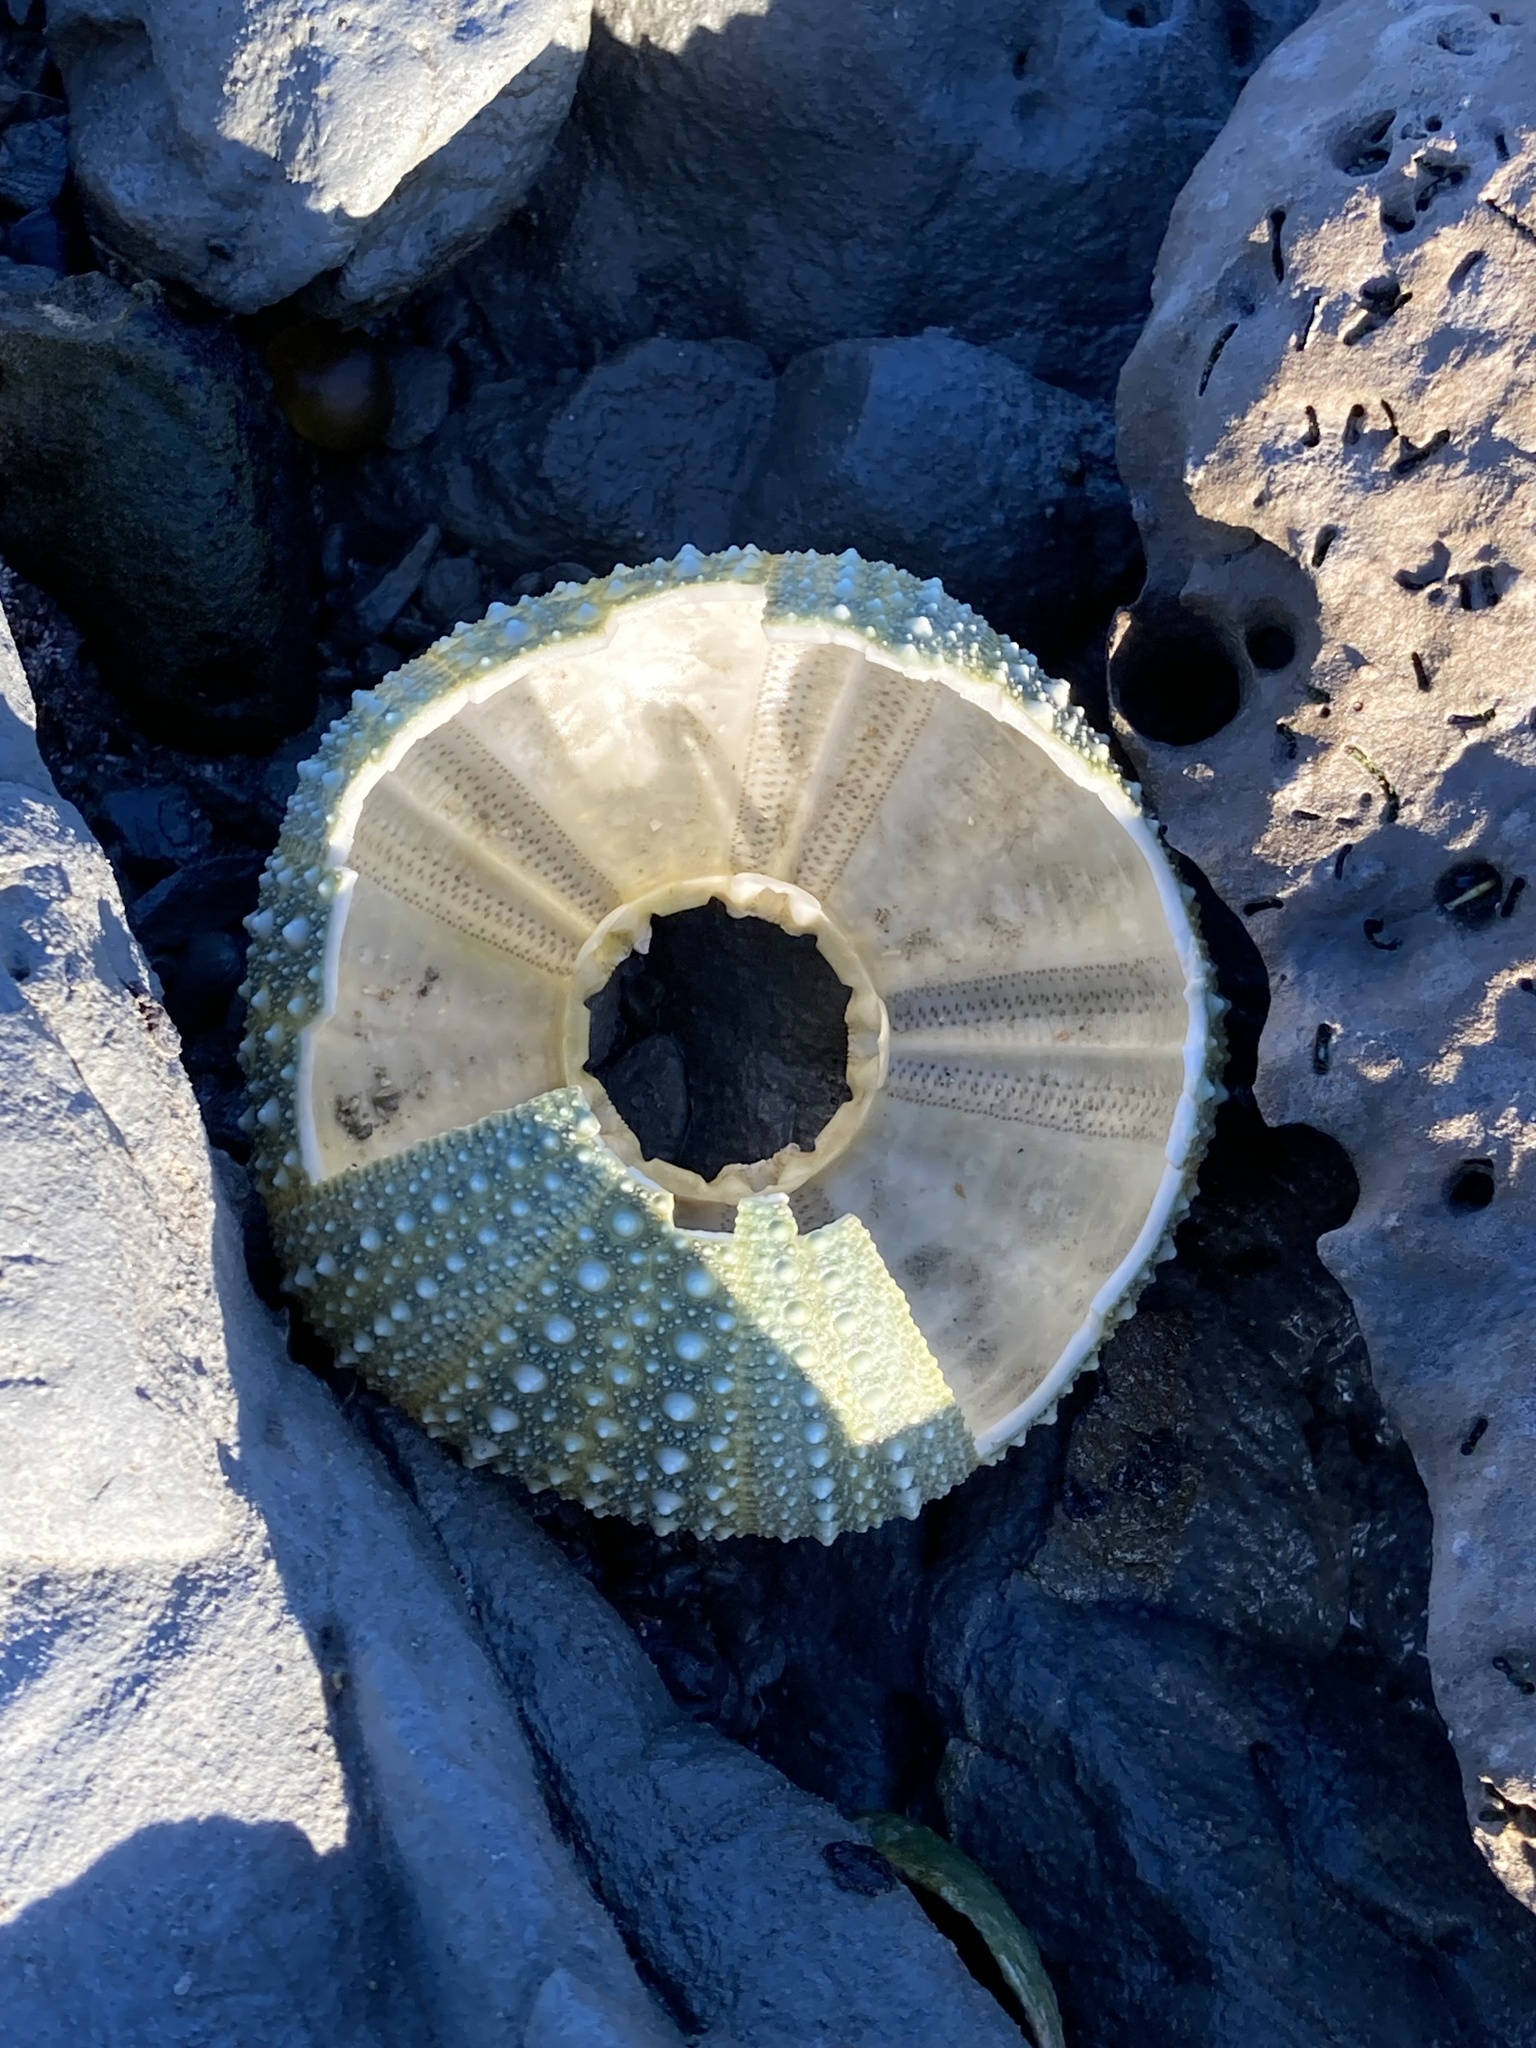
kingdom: Animalia
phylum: Echinodermata
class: Echinoidea
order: Camarodonta
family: Echinometridae
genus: Evechinus
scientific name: Evechinus chloroticus
